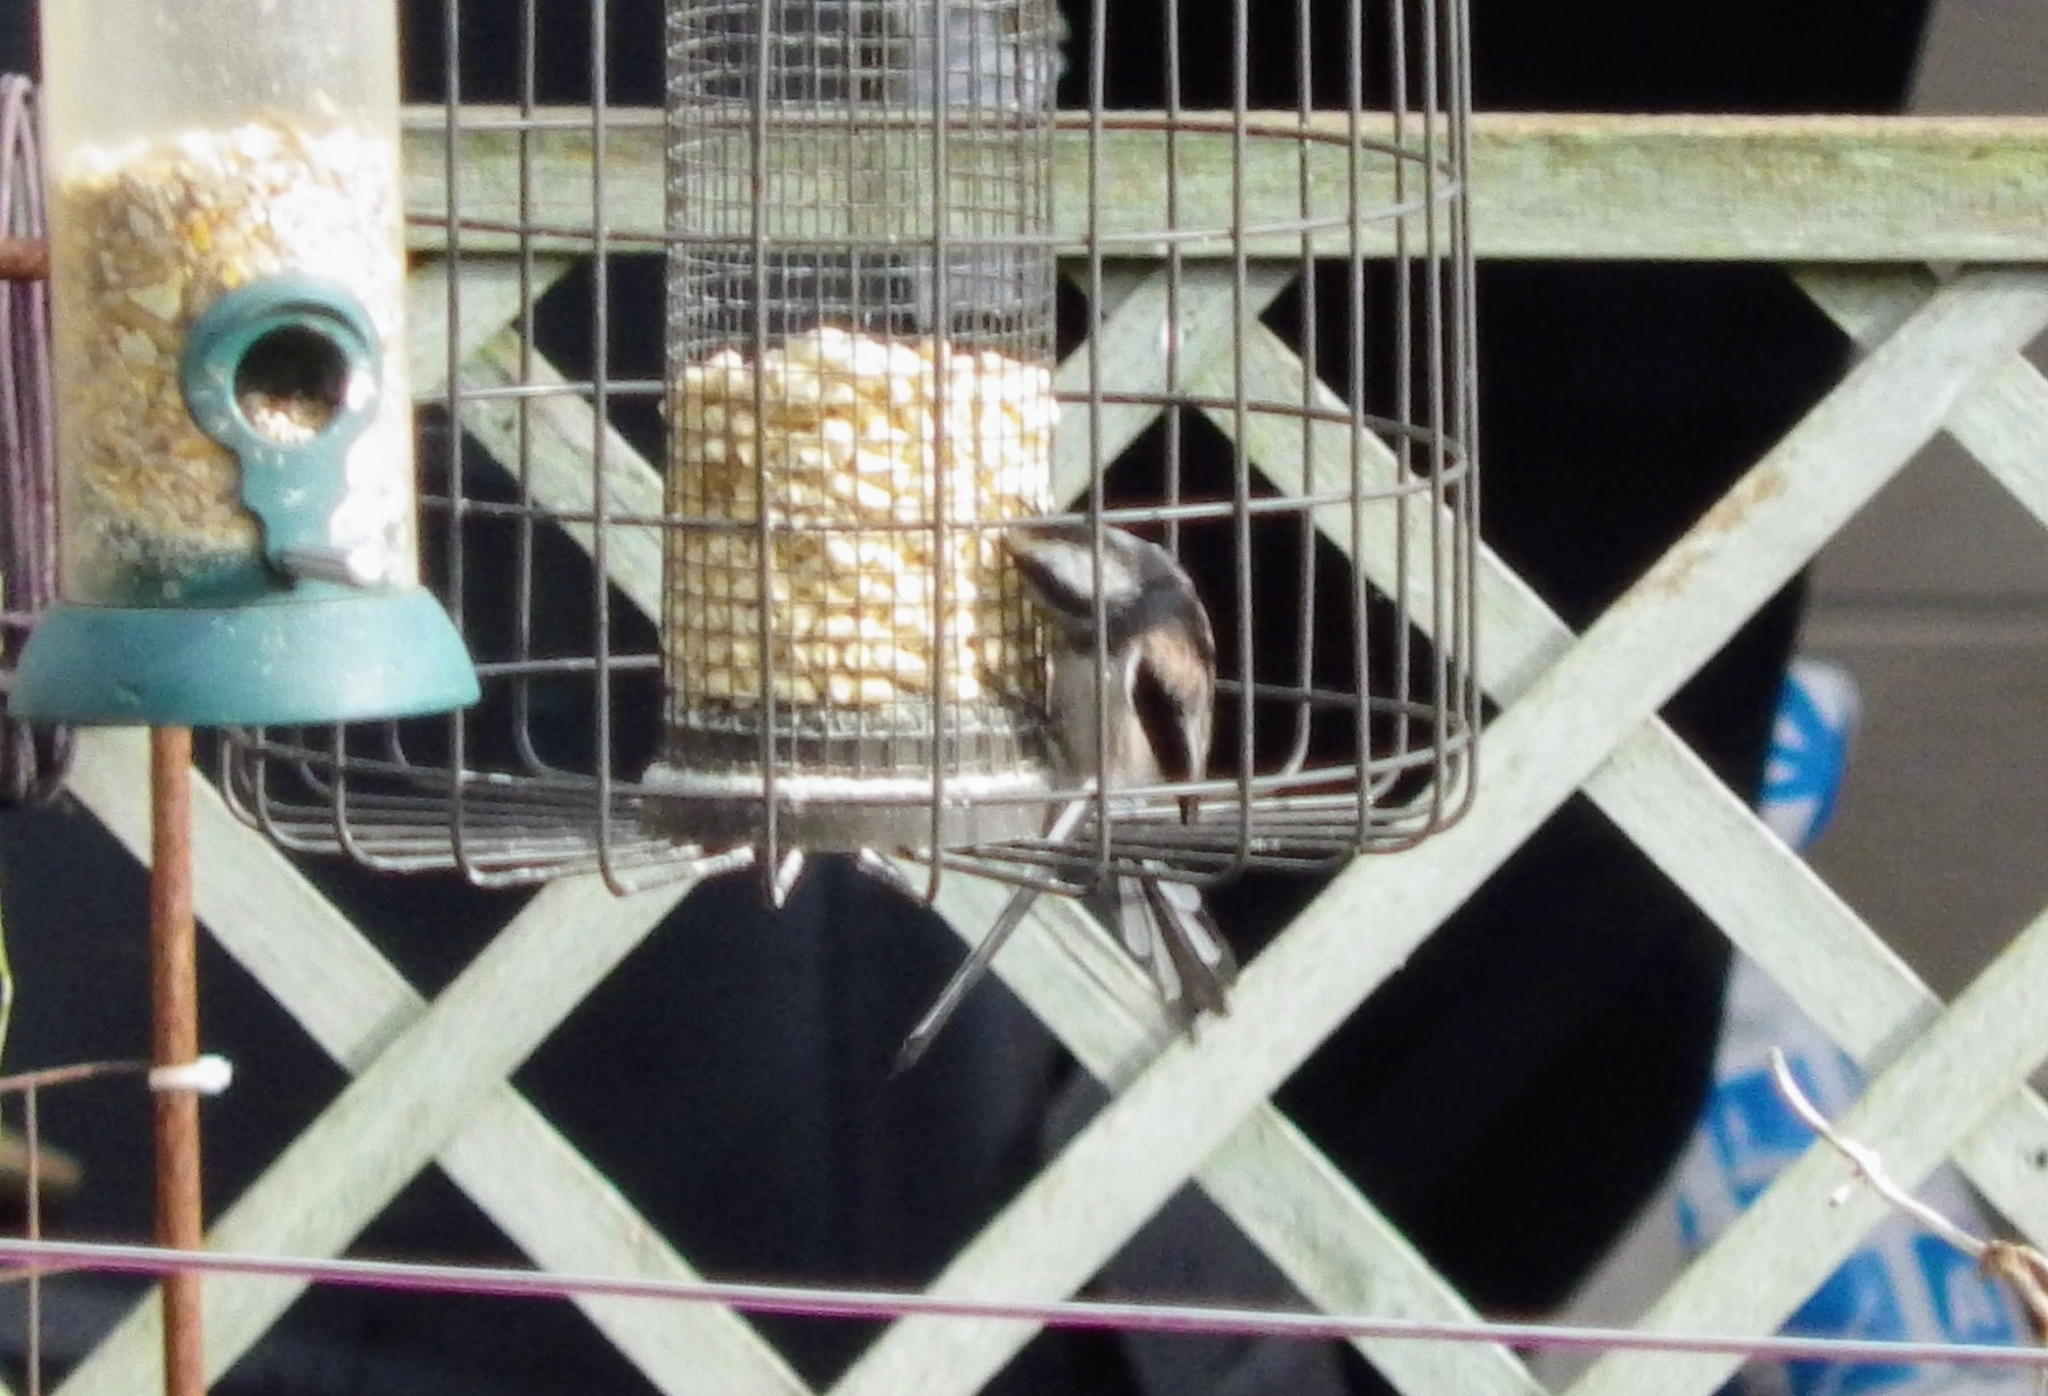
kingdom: Animalia
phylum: Chordata
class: Aves
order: Passeriformes
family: Aegithalidae
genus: Aegithalos
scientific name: Aegithalos caudatus
